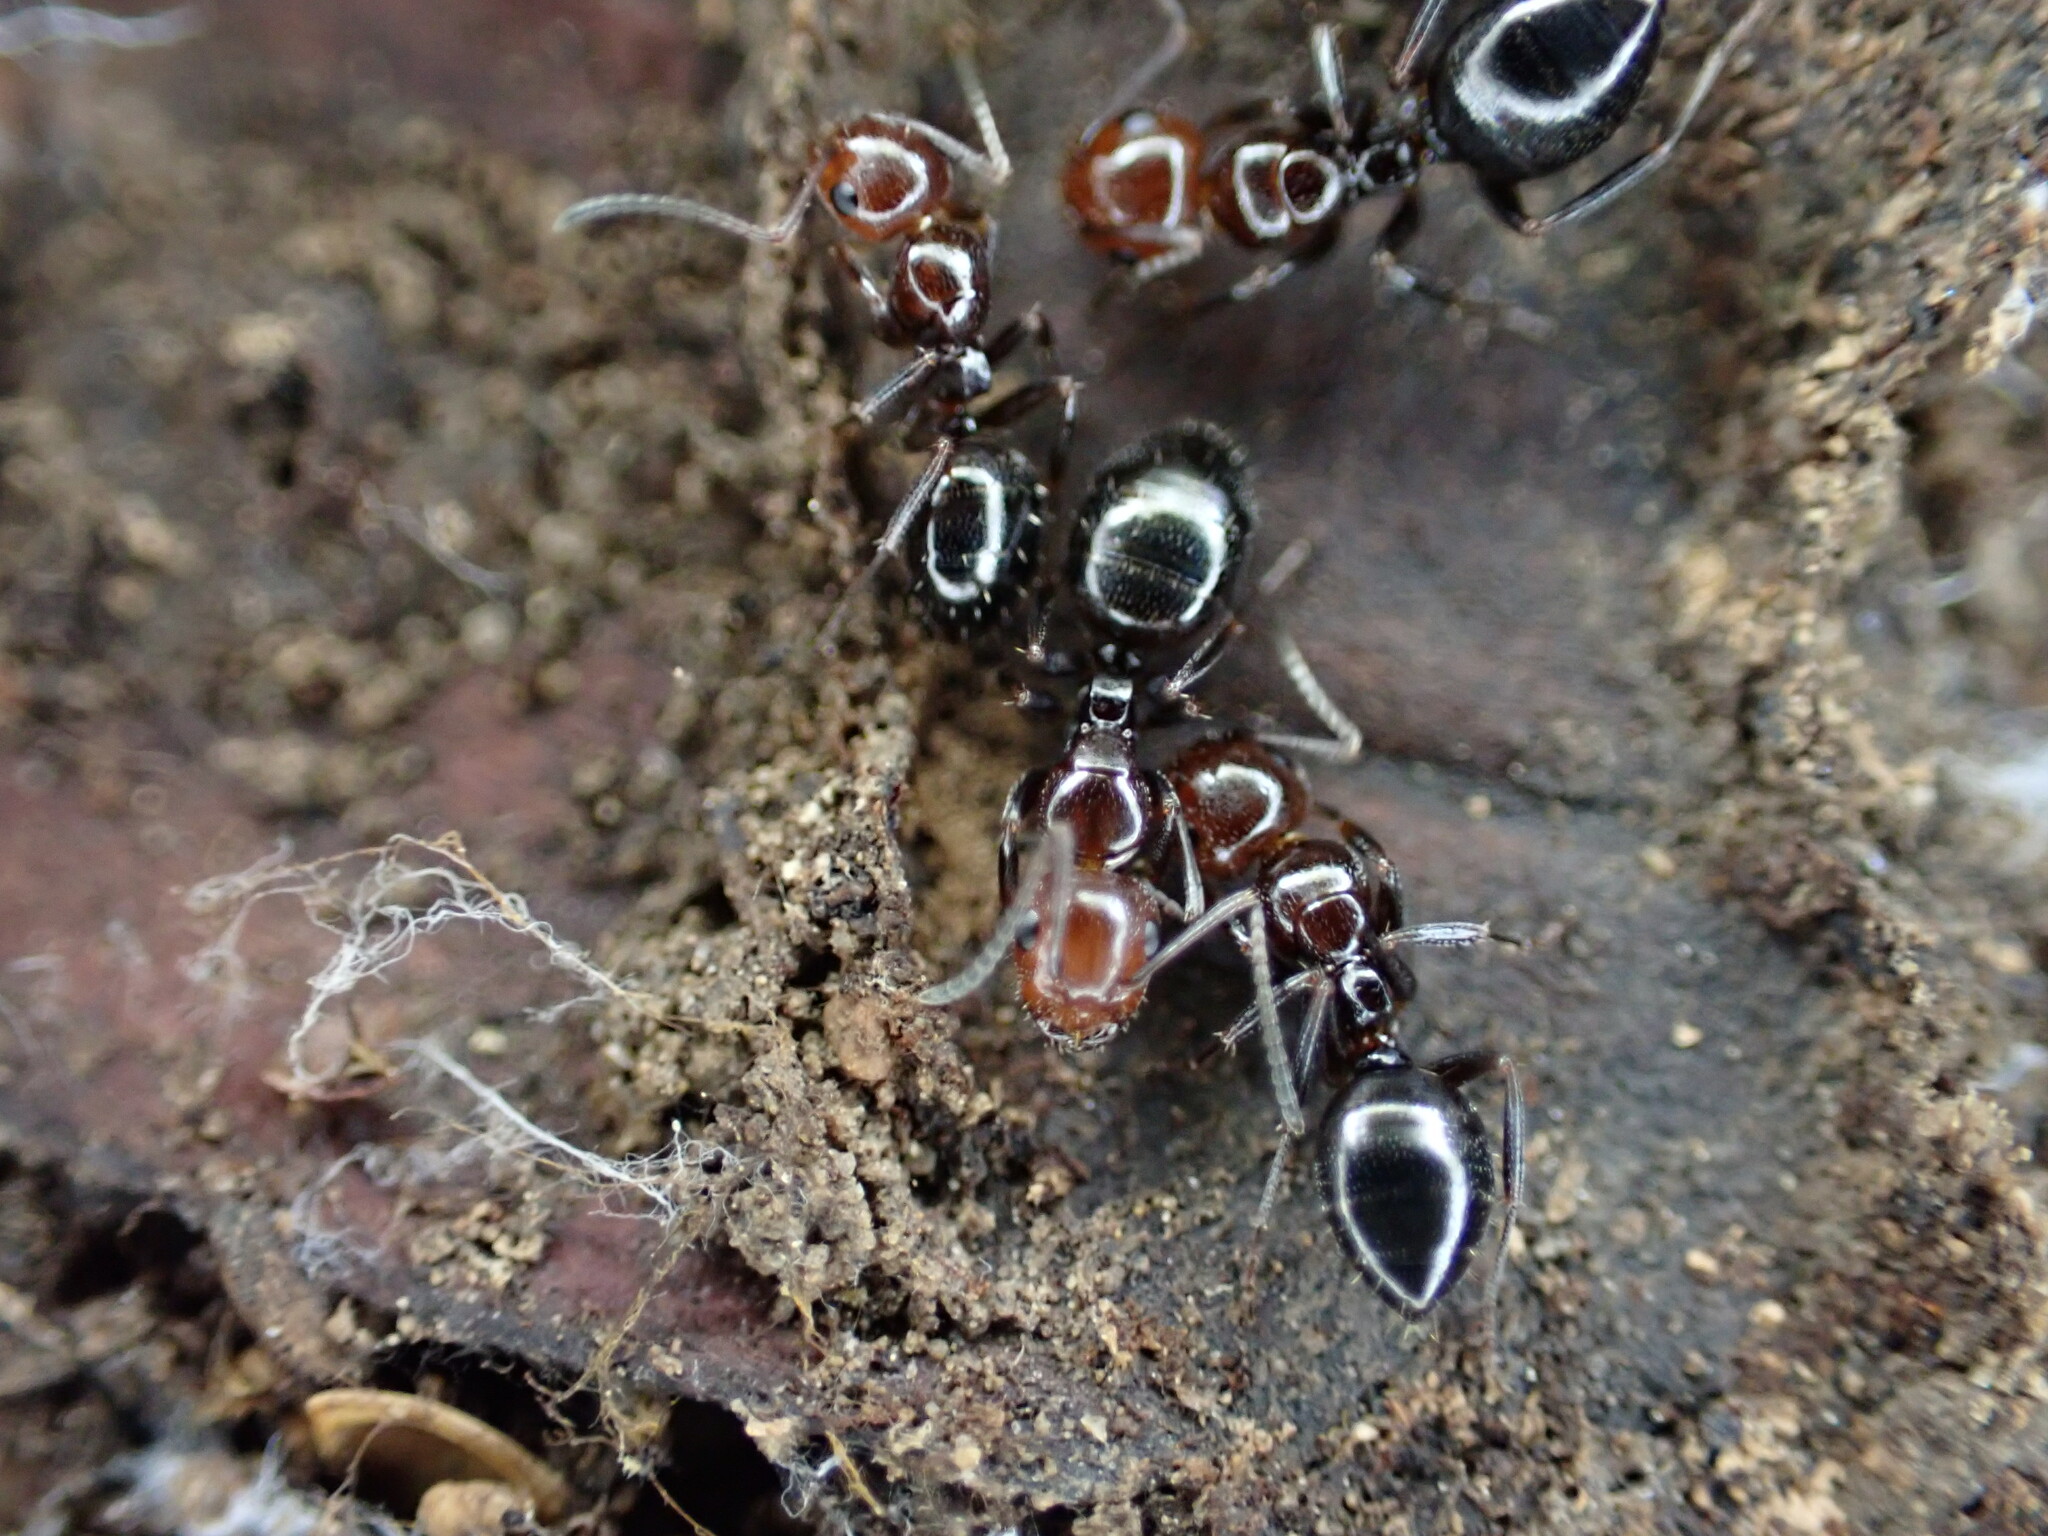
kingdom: Animalia
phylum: Arthropoda
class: Insecta
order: Hymenoptera
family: Formicidae
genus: Camponotus
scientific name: Camponotus lateralis
